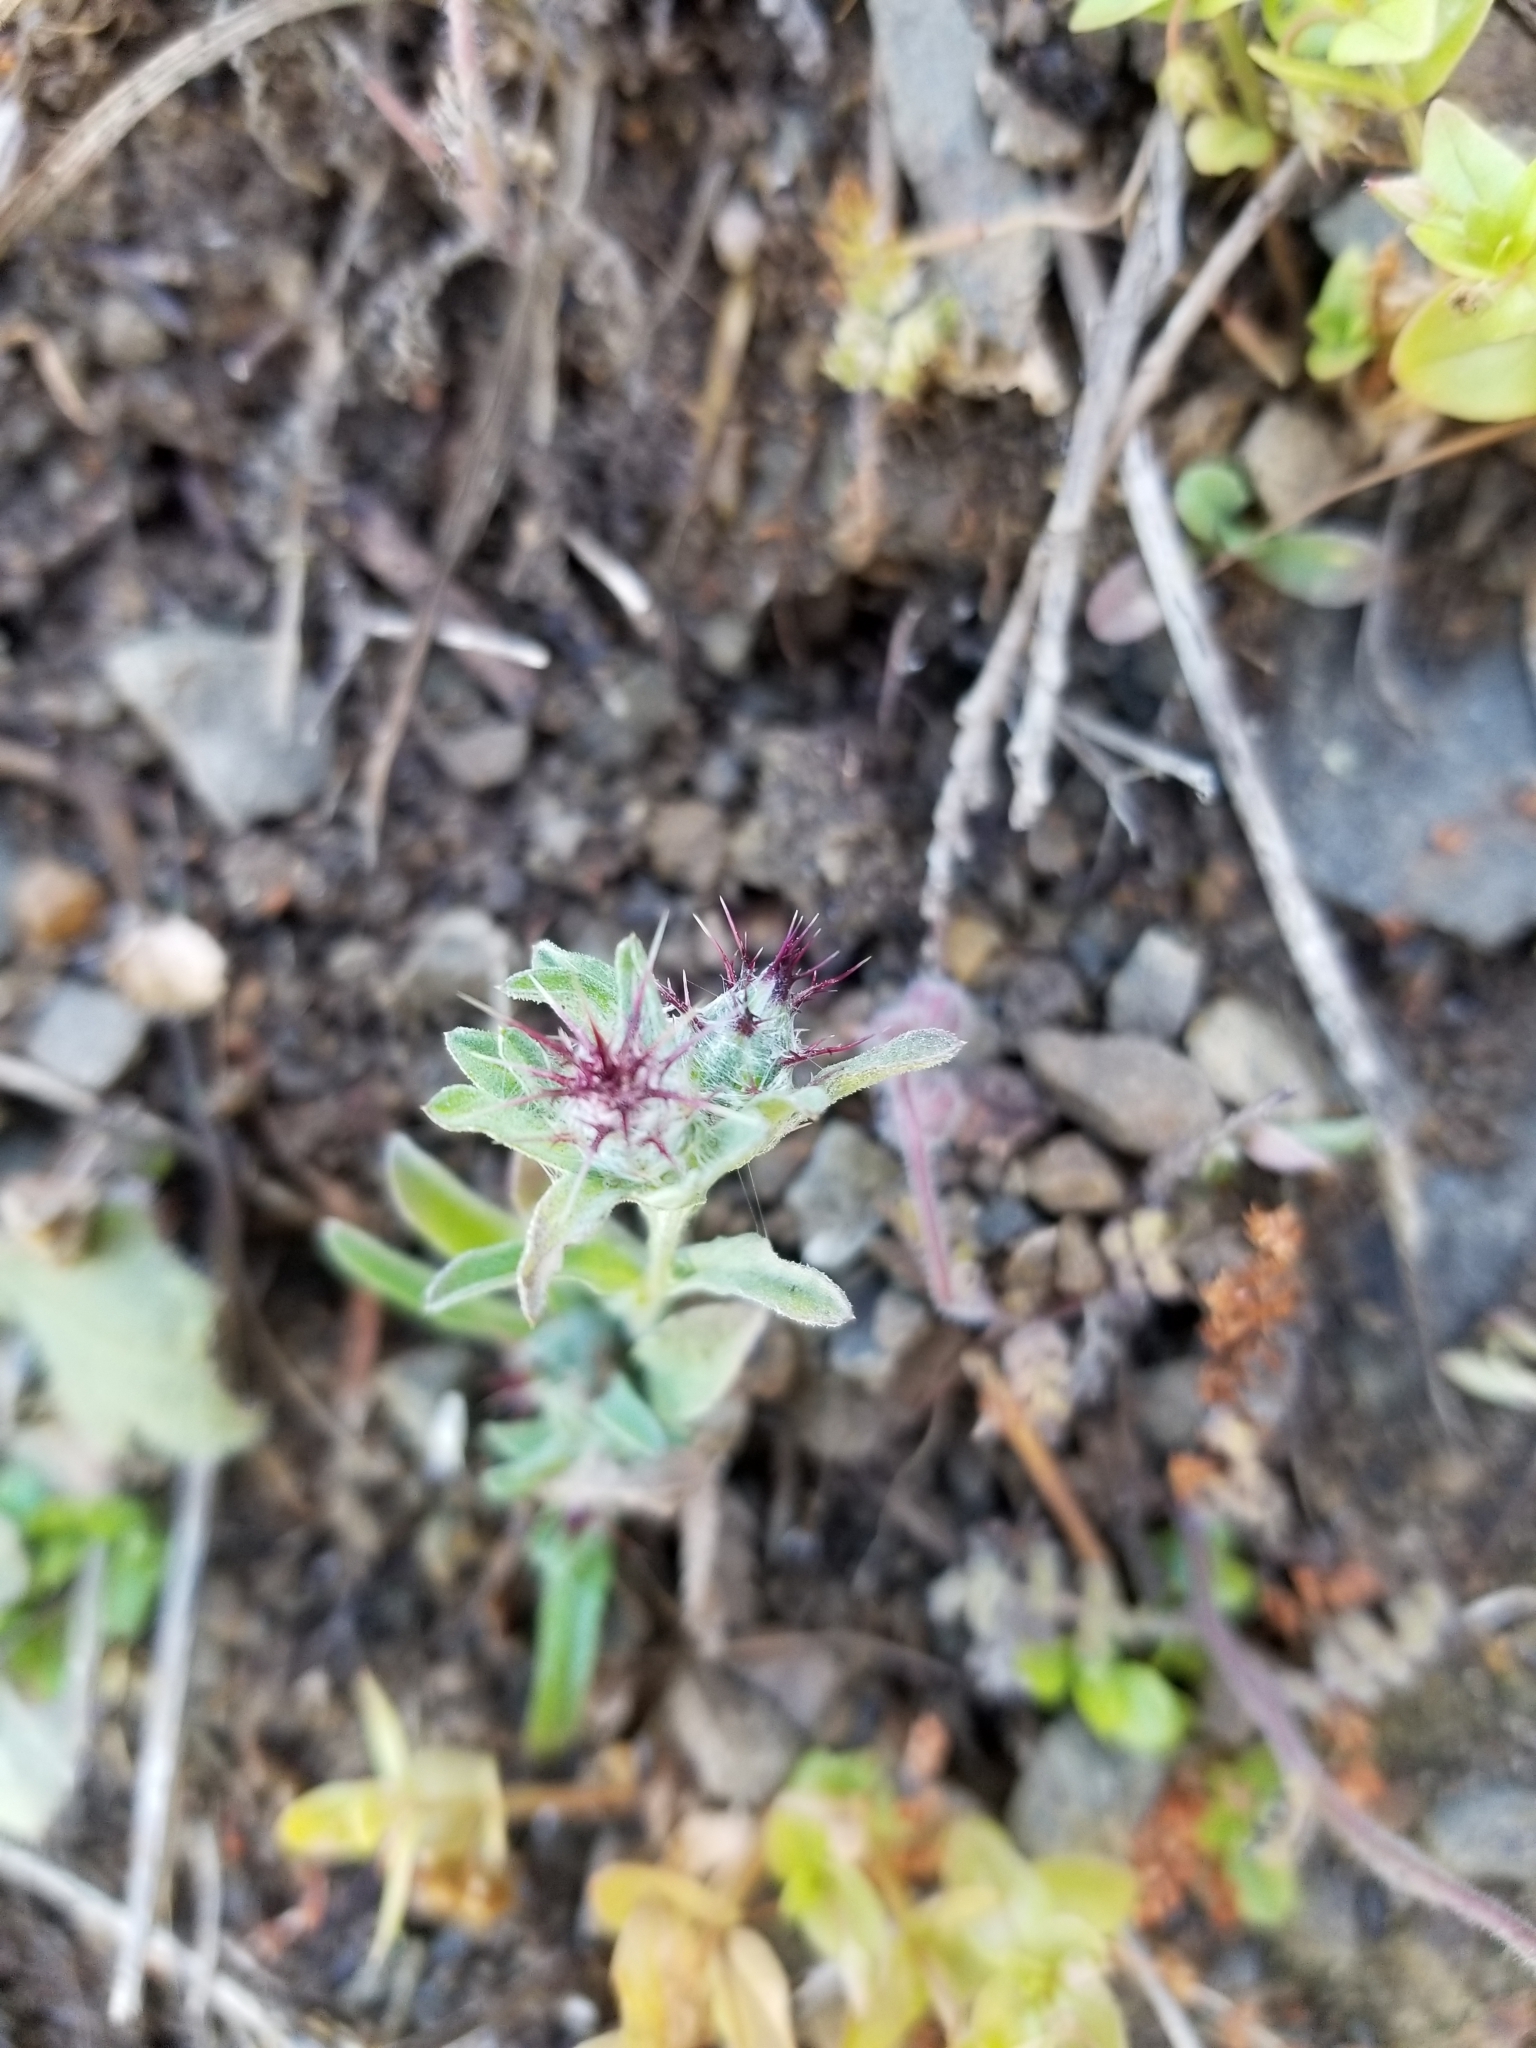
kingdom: Plantae
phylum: Tracheophyta
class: Magnoliopsida
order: Asterales
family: Asteraceae
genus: Centaurea
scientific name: Centaurea melitensis
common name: Maltese star-thistle
